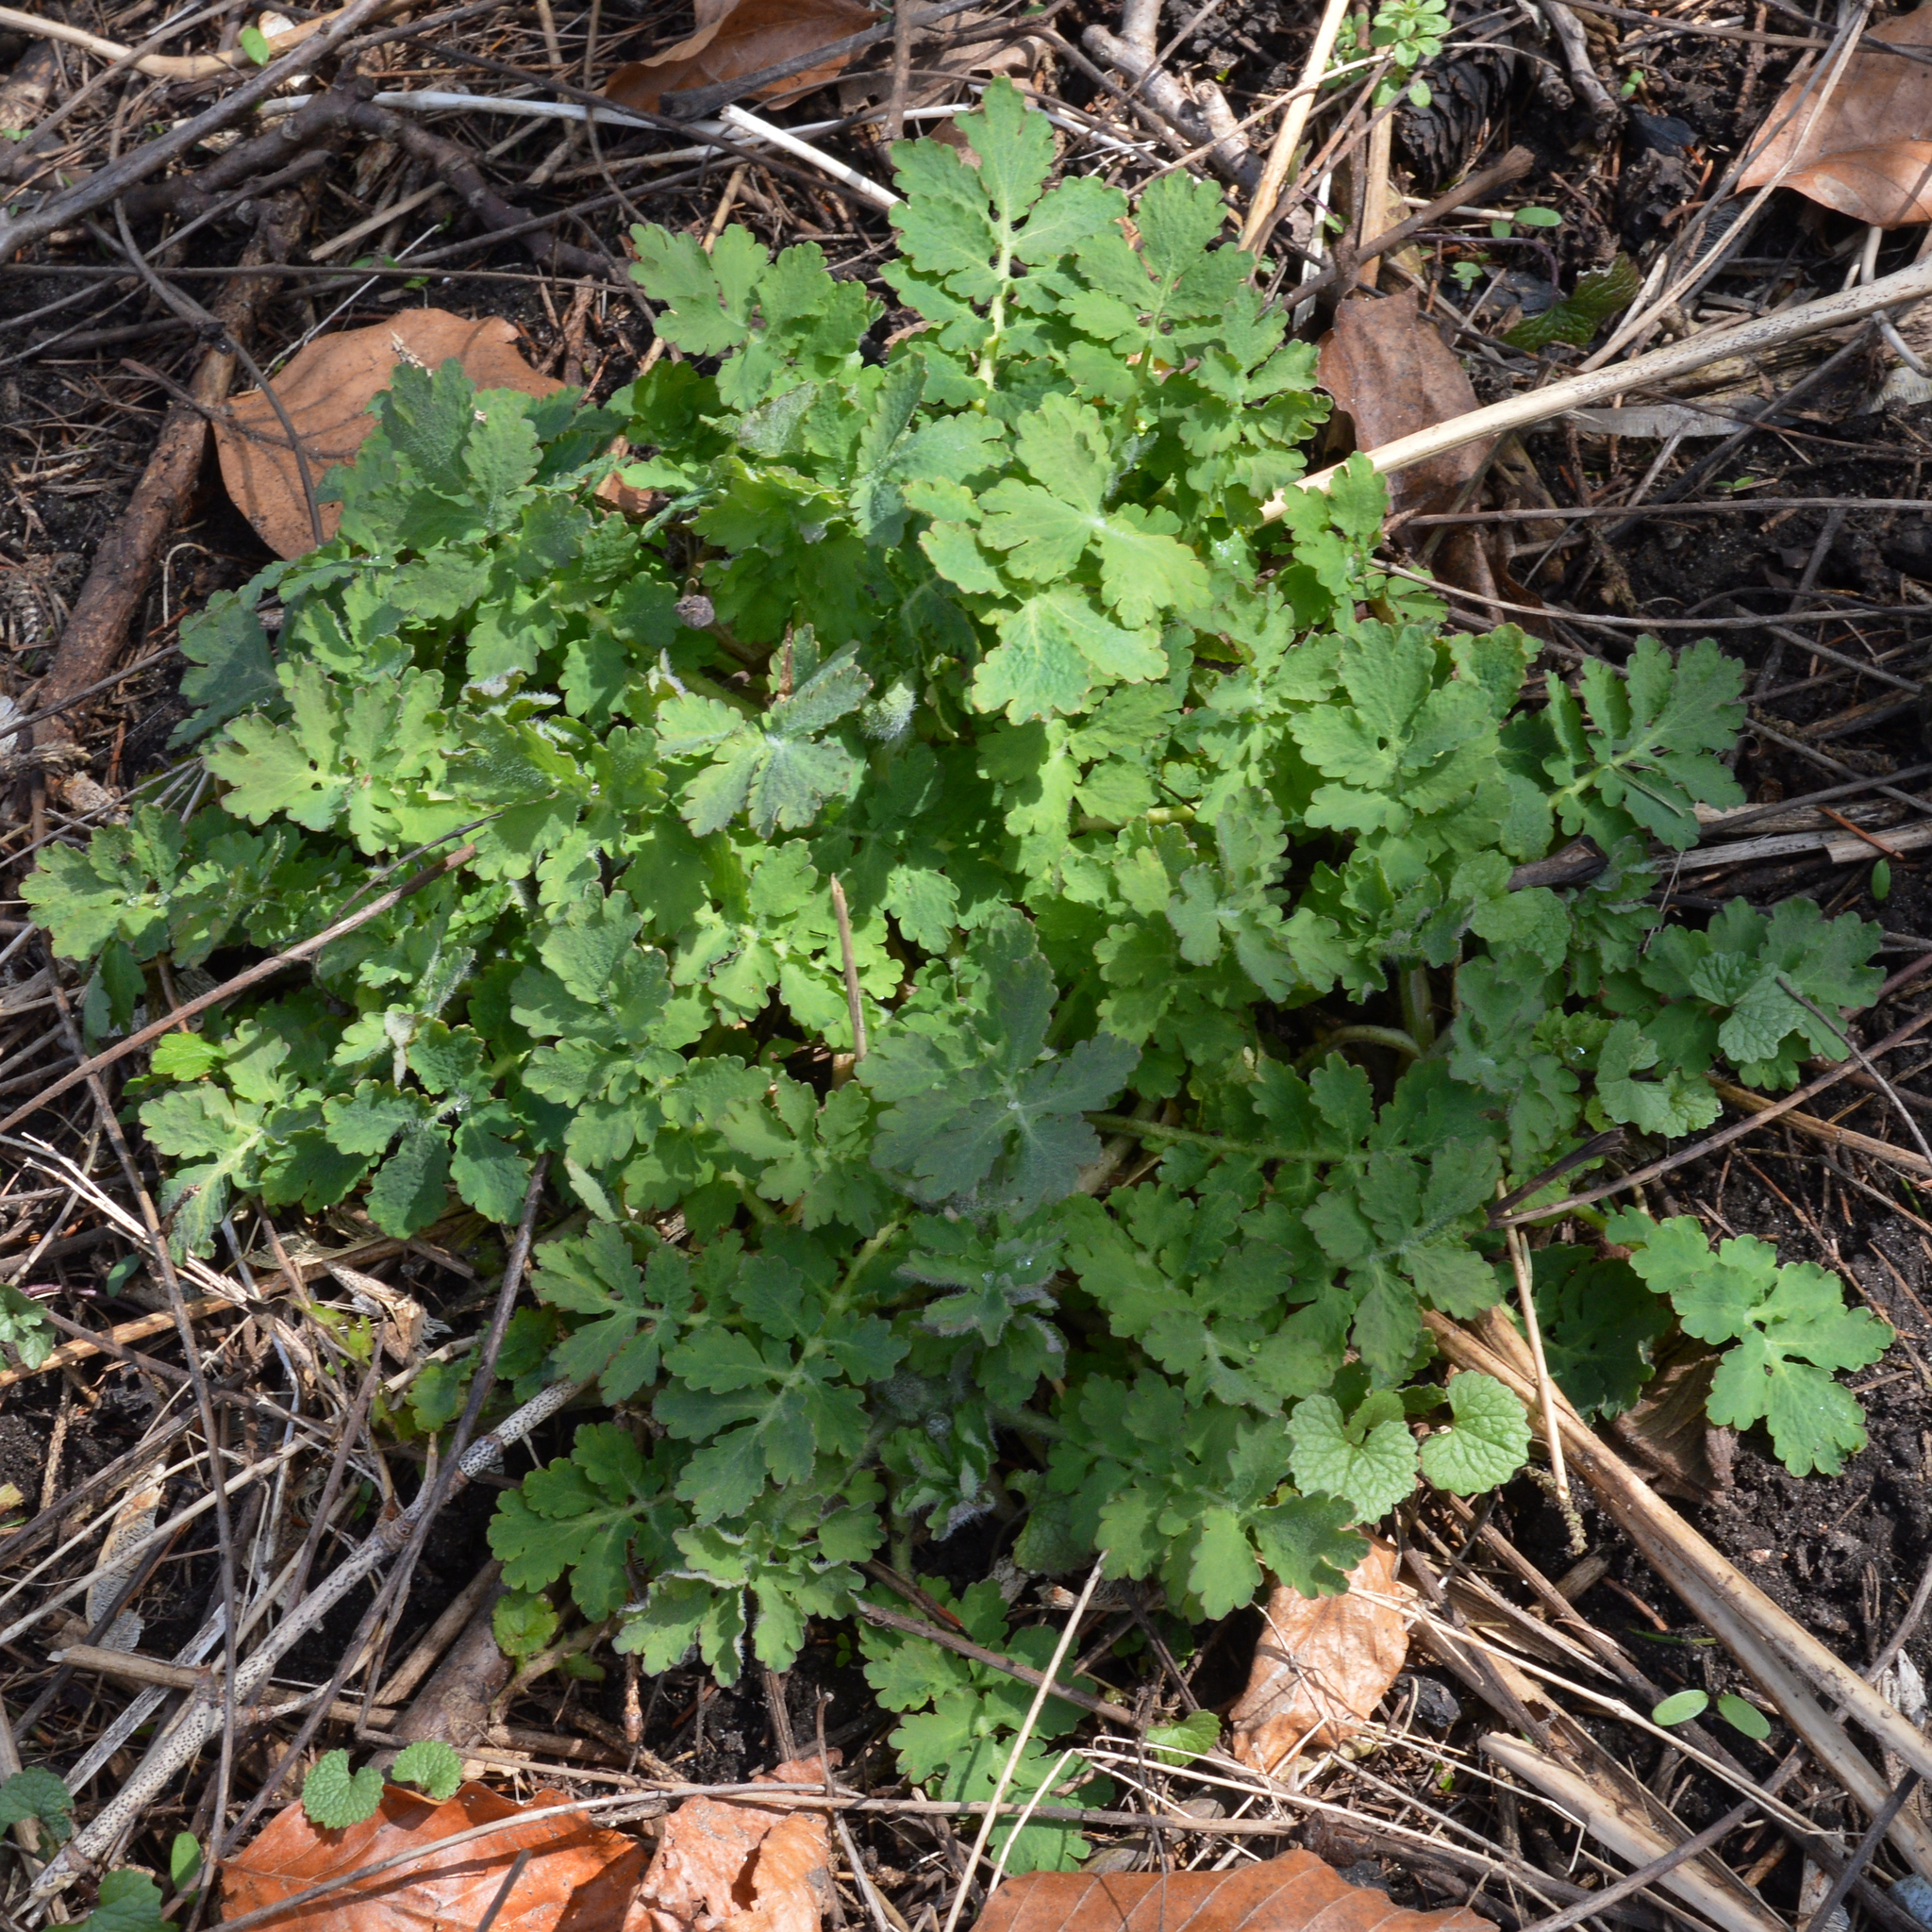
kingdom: Plantae
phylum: Tracheophyta
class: Magnoliopsida
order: Ranunculales
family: Papaveraceae
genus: Chelidonium
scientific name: Chelidonium majus
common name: Greater celandine
